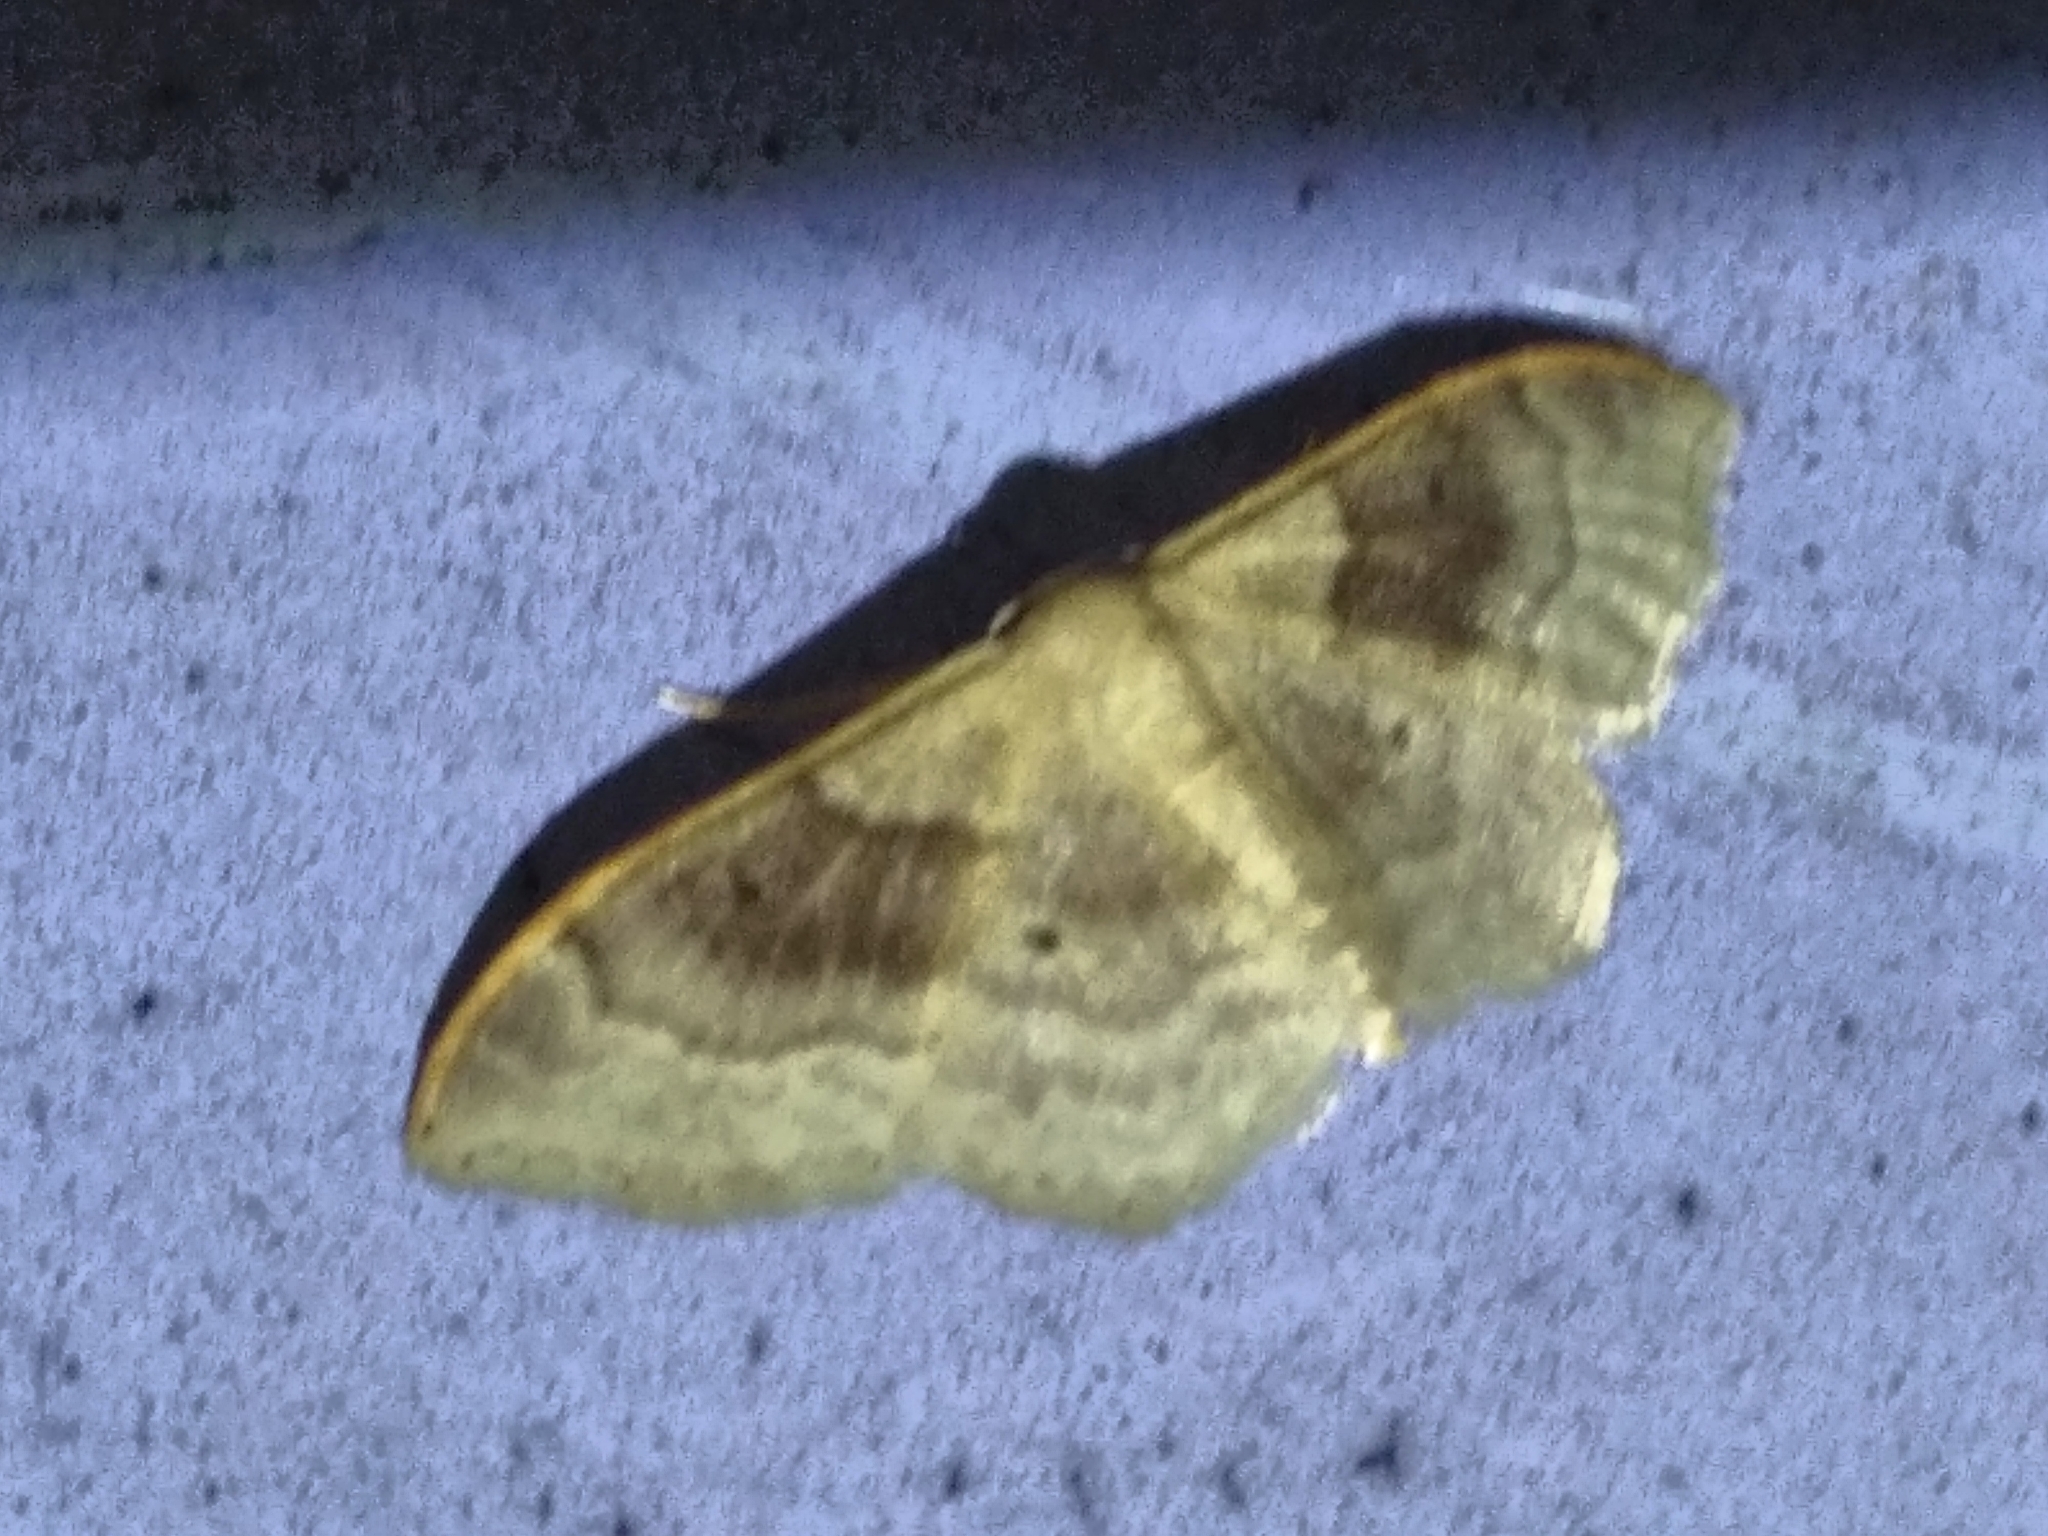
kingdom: Animalia
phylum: Arthropoda
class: Insecta
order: Lepidoptera
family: Geometridae
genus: Idaea
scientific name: Idaea degeneraria
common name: Portland ribbon wave
